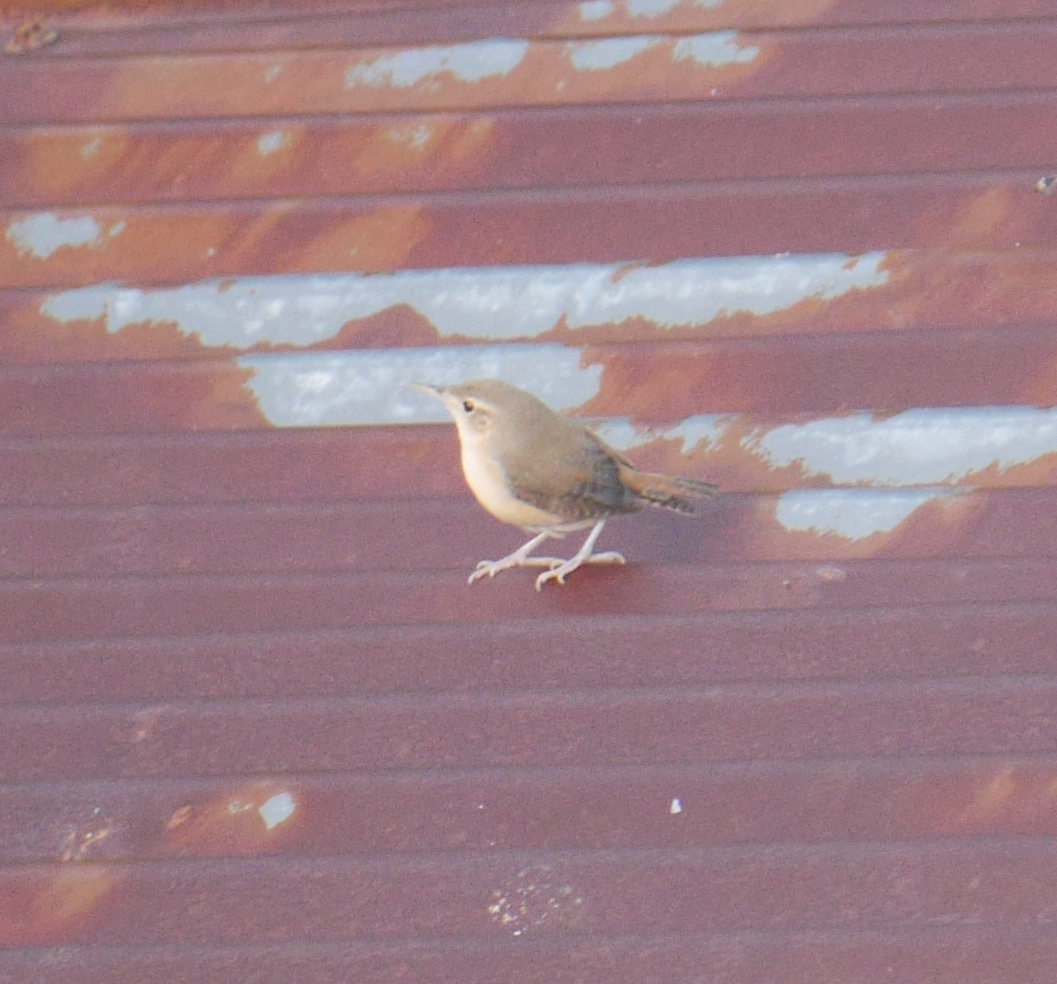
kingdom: Animalia
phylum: Chordata
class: Aves
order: Passeriformes
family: Troglodytidae
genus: Troglodytes
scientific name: Troglodytes aedon
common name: House wren
